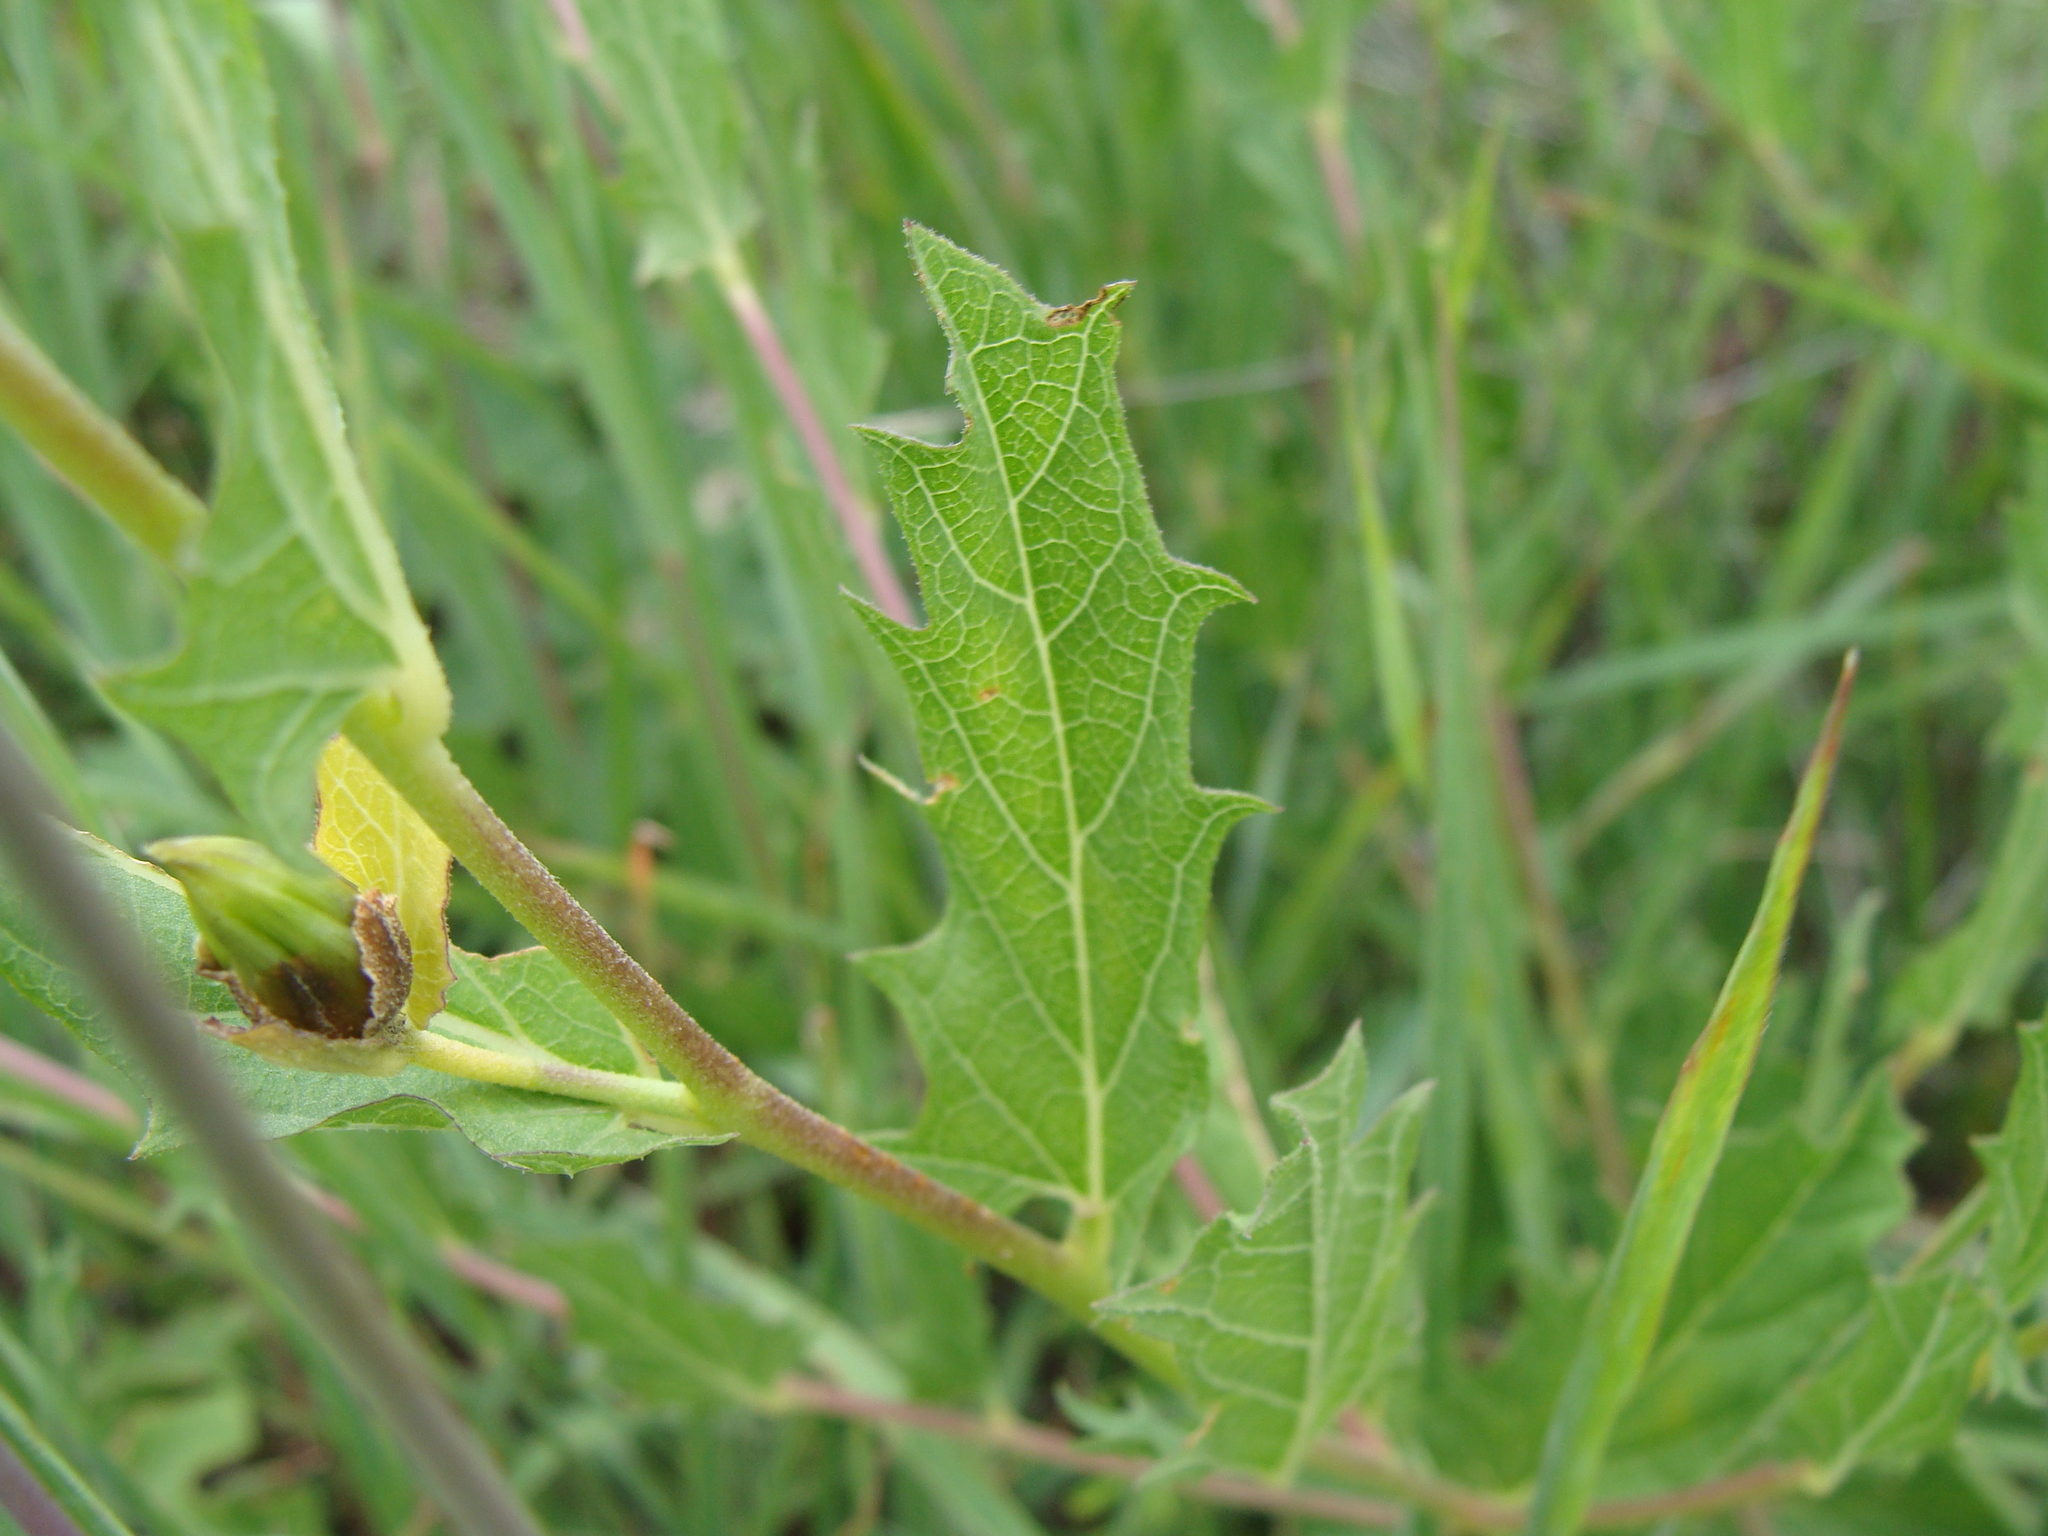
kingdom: Plantae
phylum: Tracheophyta
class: Magnoliopsida
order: Solanales
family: Convolvulaceae
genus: Ipomoea
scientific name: Ipomoea stans
